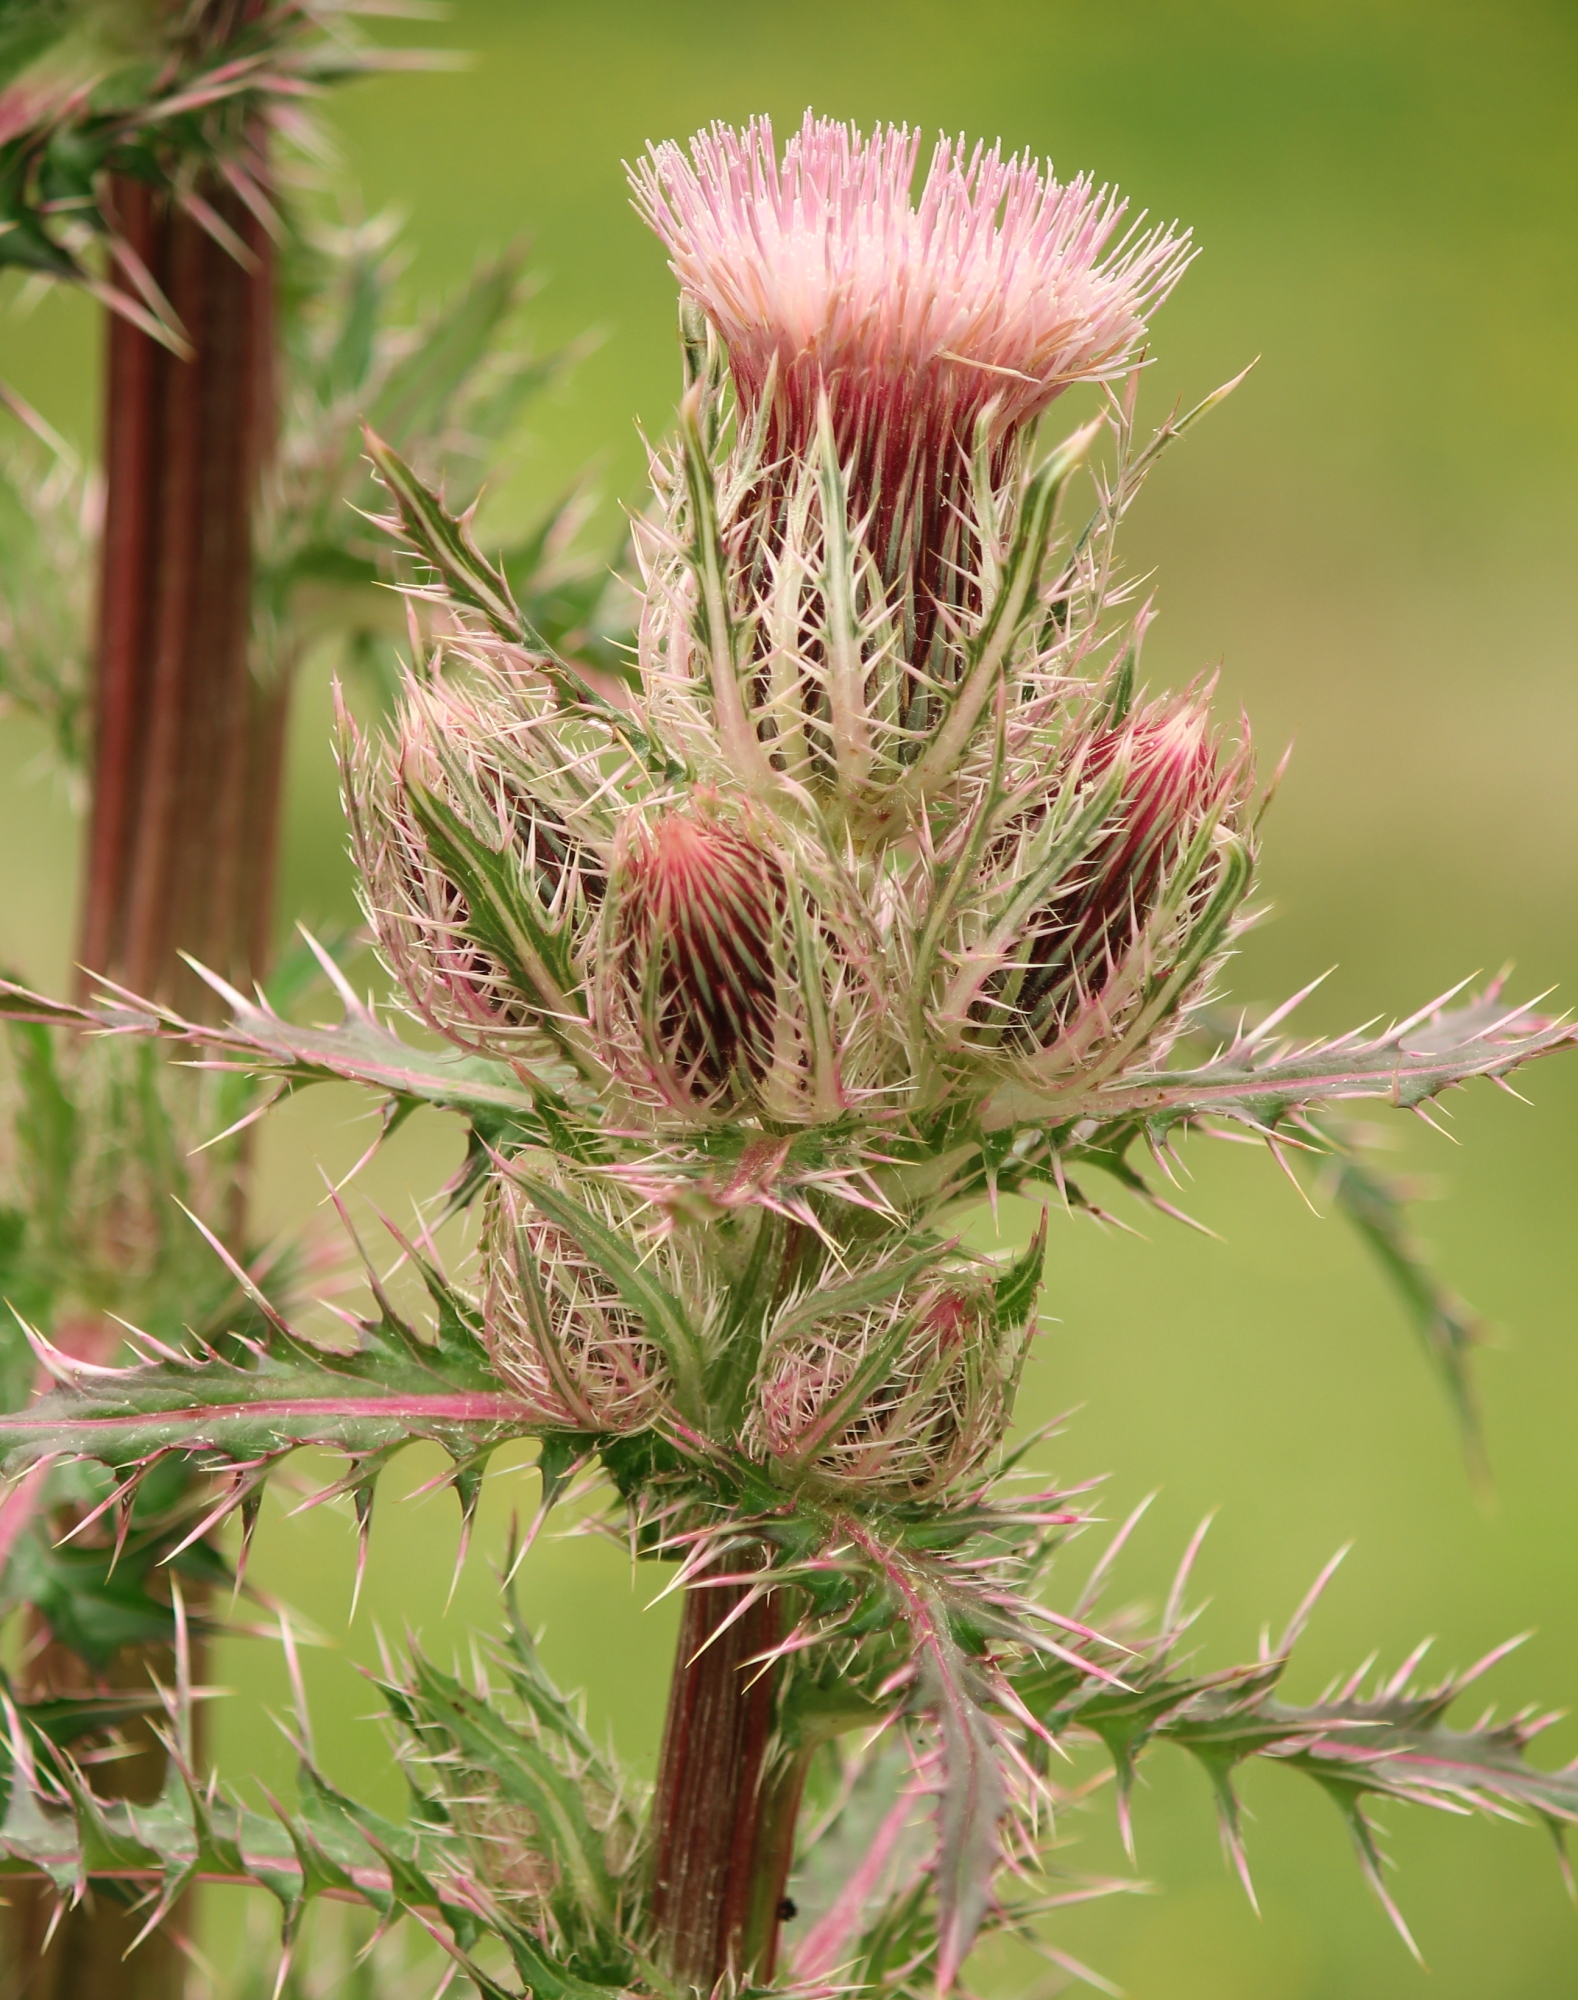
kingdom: Plantae
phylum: Tracheophyta
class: Magnoliopsida
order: Asterales
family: Asteraceae
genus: Cirsium
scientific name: Cirsium horridulum
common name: Bristly thistle
